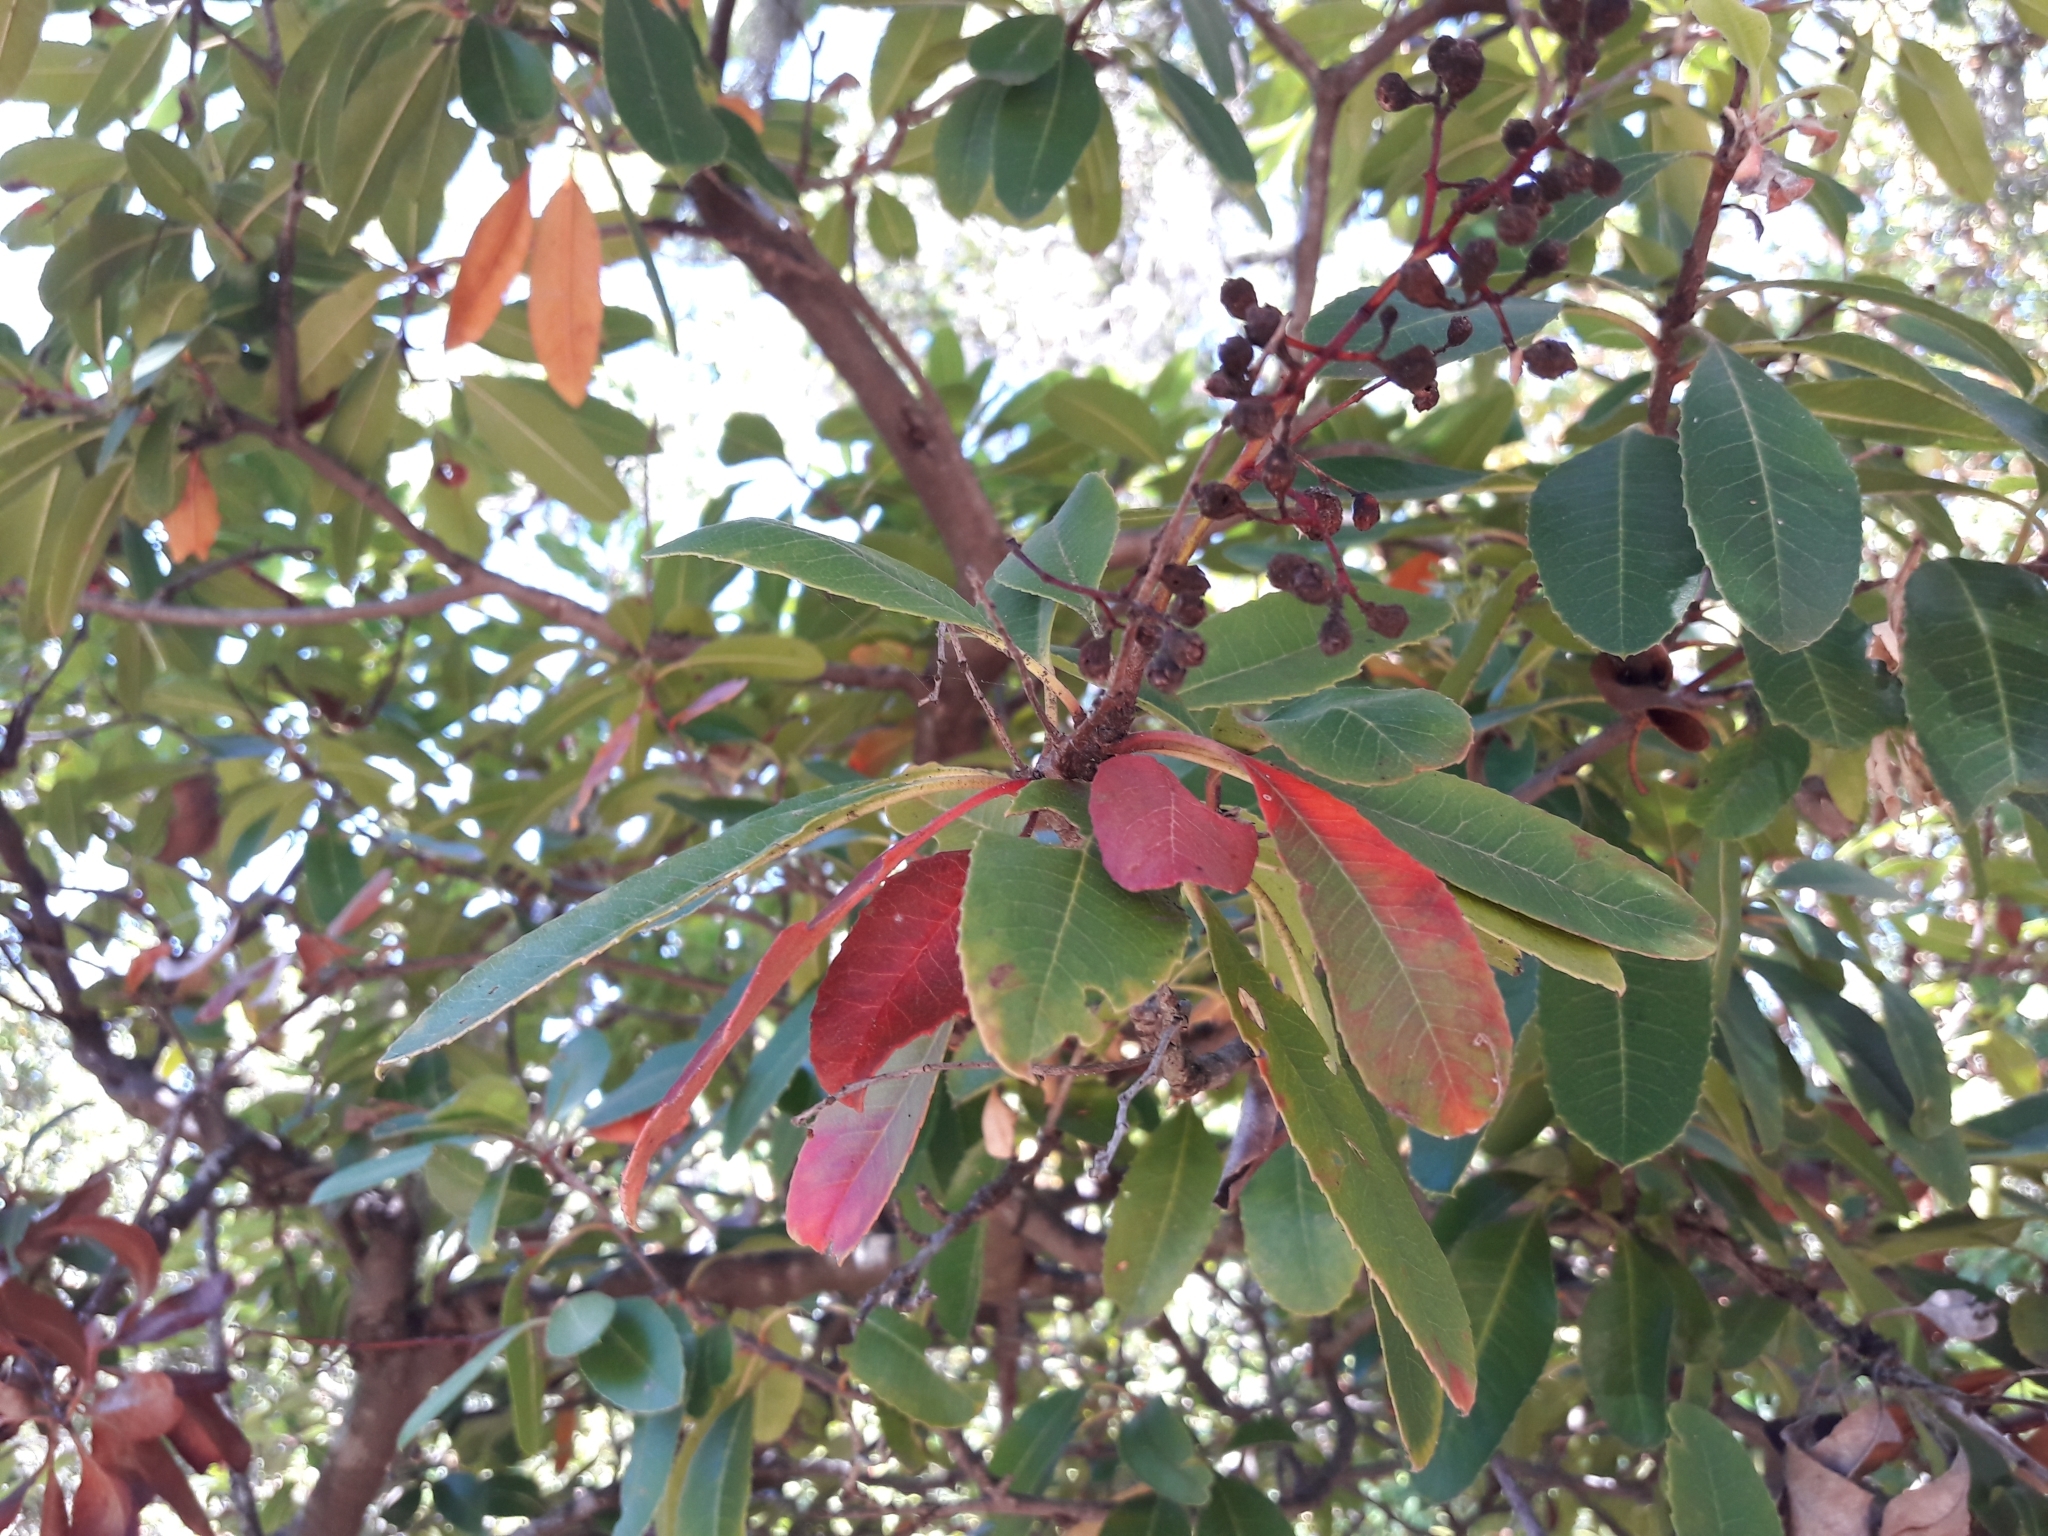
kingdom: Plantae
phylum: Tracheophyta
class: Magnoliopsida
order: Rosales
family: Rosaceae
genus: Heteromeles
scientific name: Heteromeles arbutifolia
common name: California-holly
